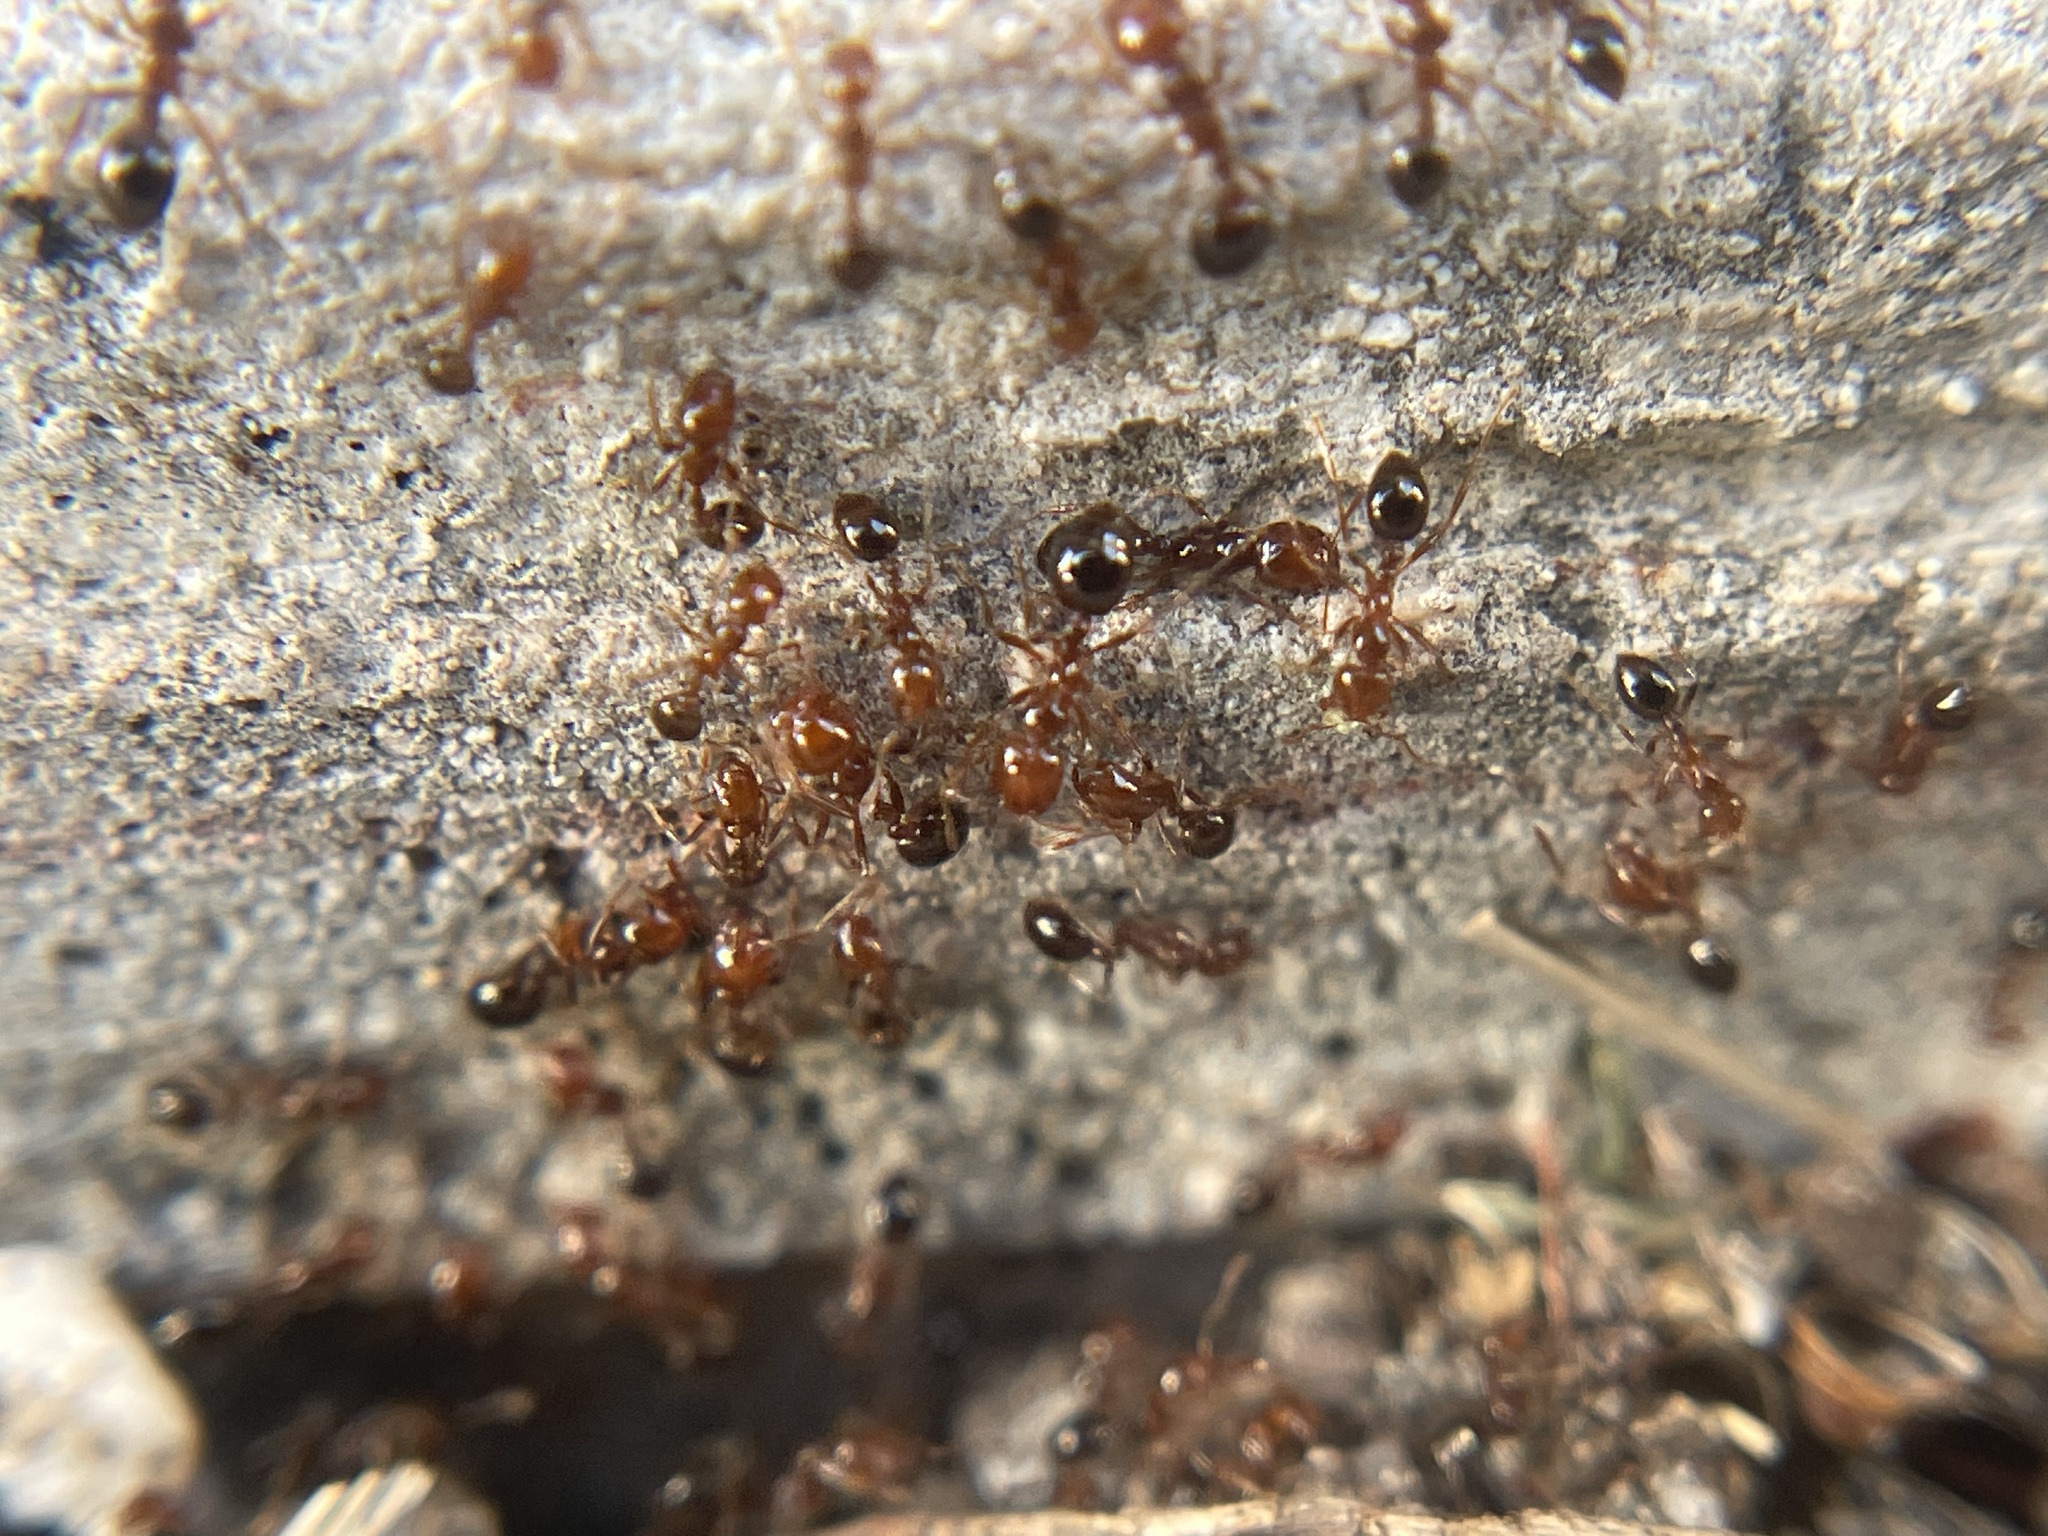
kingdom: Animalia
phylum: Arthropoda
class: Insecta
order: Hymenoptera
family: Formicidae
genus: Solenopsis
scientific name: Solenopsis invicta
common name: Red imported fire ant
